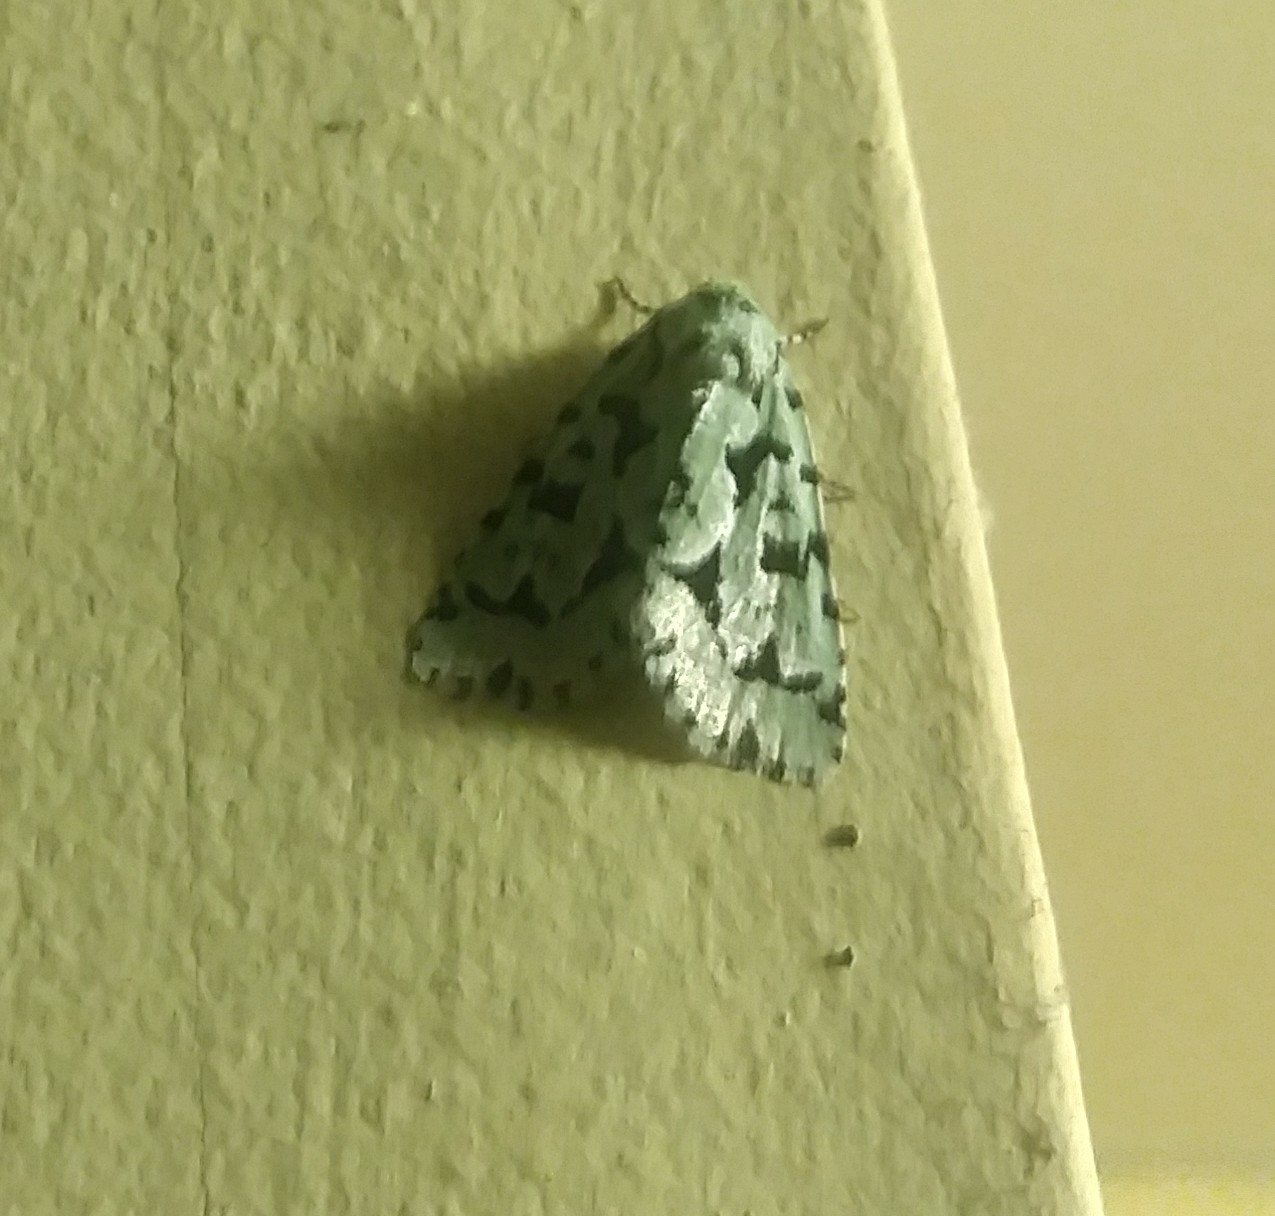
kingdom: Animalia
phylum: Arthropoda
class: Insecta
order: Lepidoptera
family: Noctuidae
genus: Acronicta
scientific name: Acronicta fallax
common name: Green marvel
